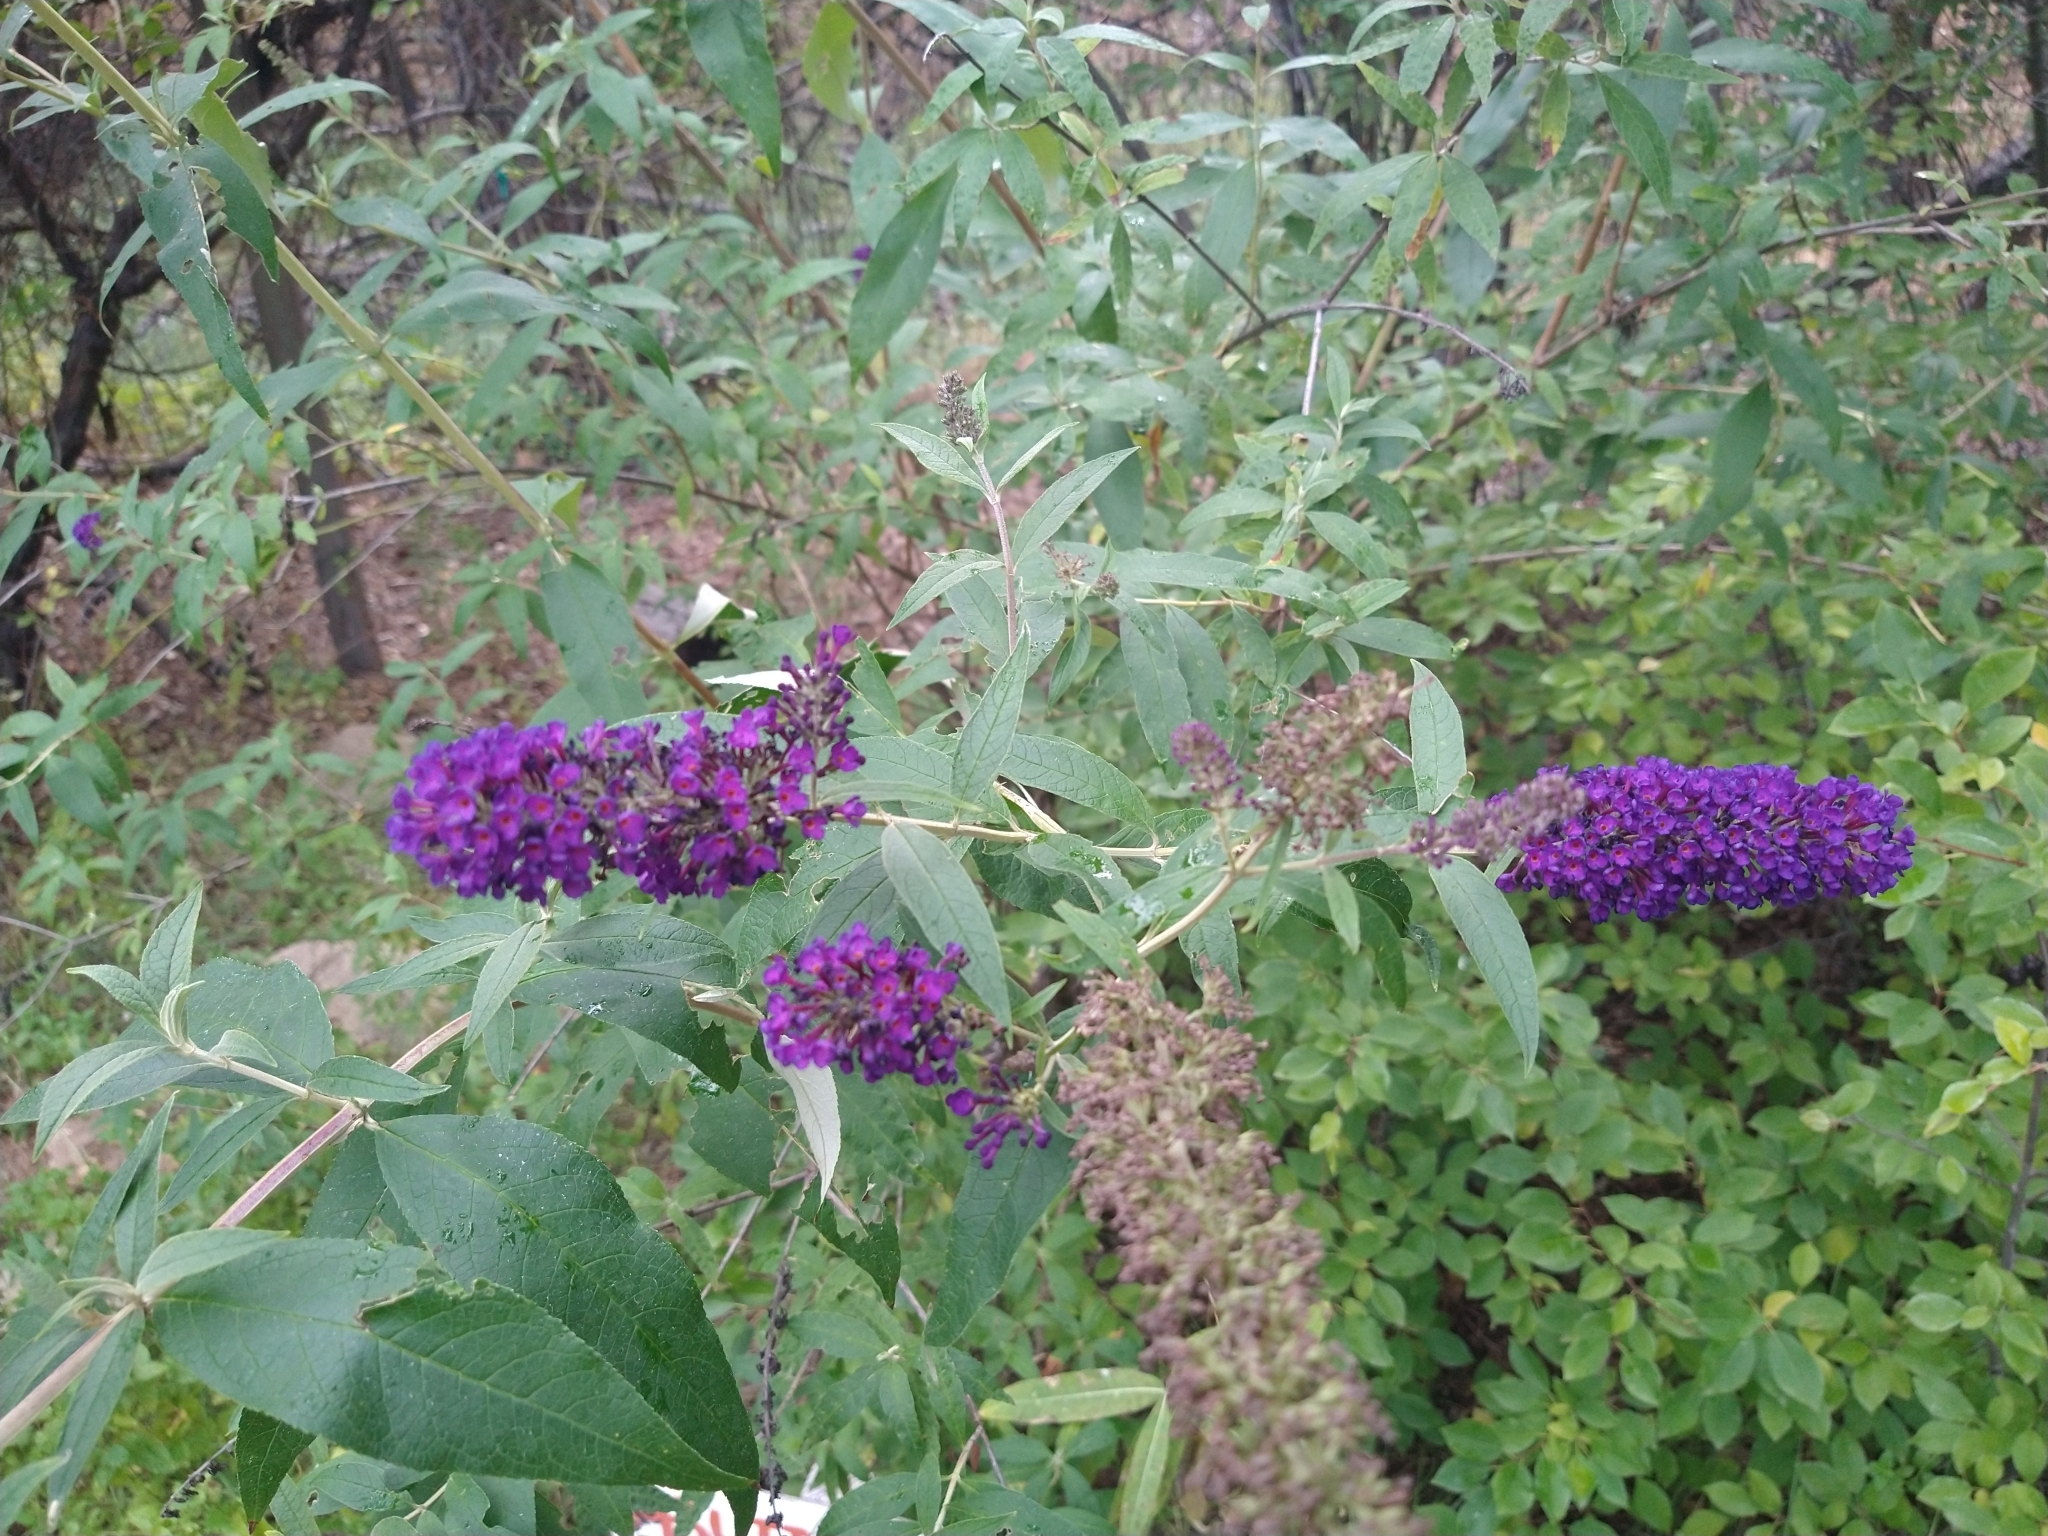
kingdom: Plantae
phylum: Tracheophyta
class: Magnoliopsida
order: Lamiales
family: Scrophulariaceae
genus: Buddleja
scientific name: Buddleja davidii
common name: Butterfly-bush
